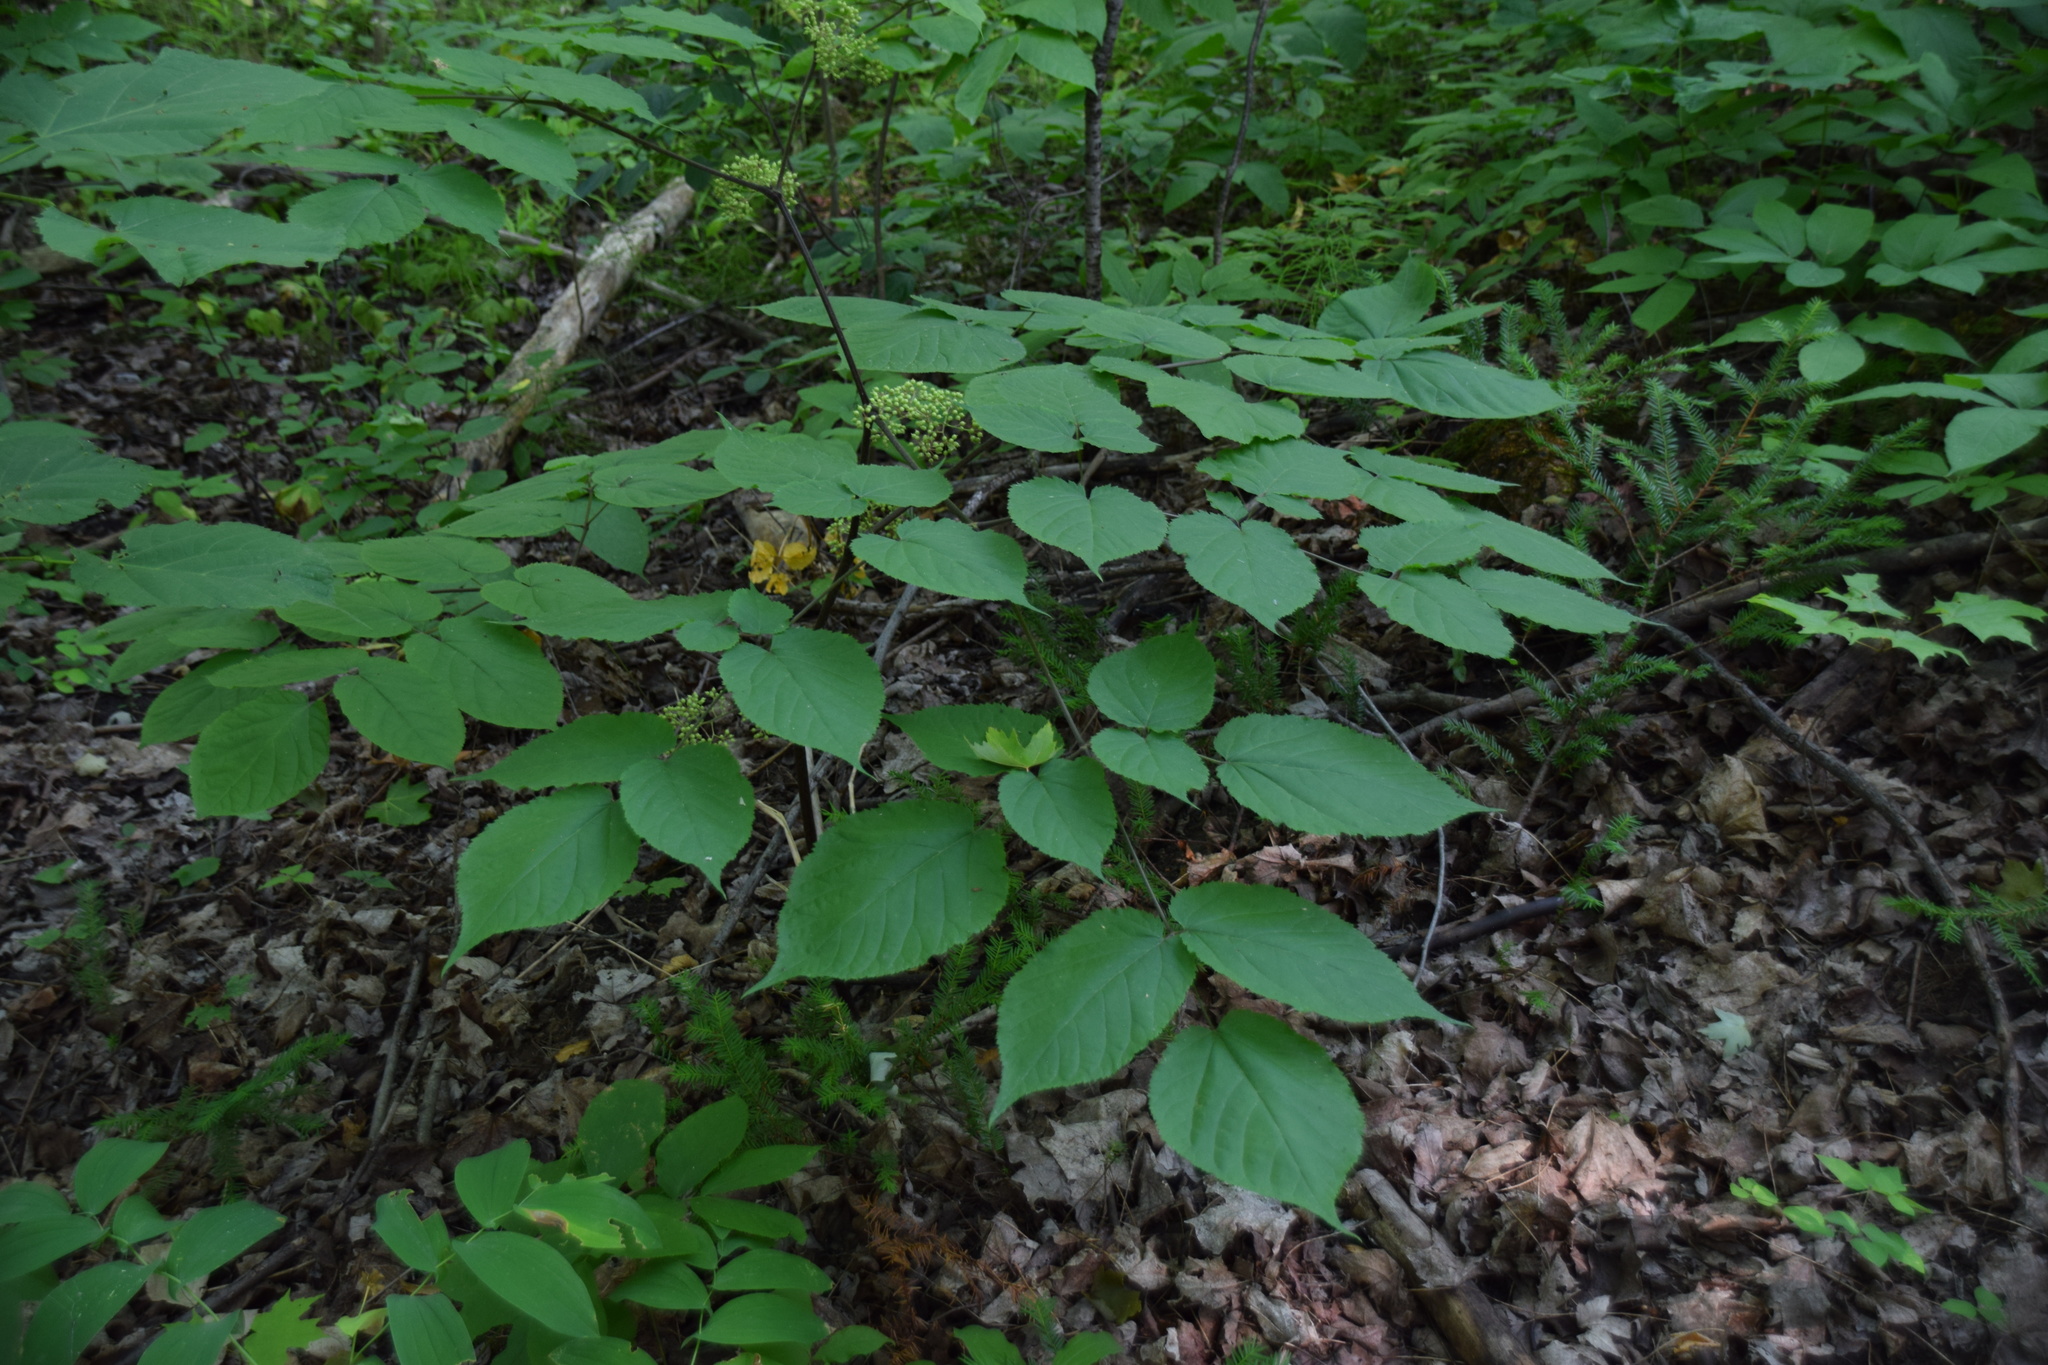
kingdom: Plantae
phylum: Tracheophyta
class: Magnoliopsida
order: Apiales
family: Araliaceae
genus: Aralia
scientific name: Aralia racemosa
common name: American-spikenard
